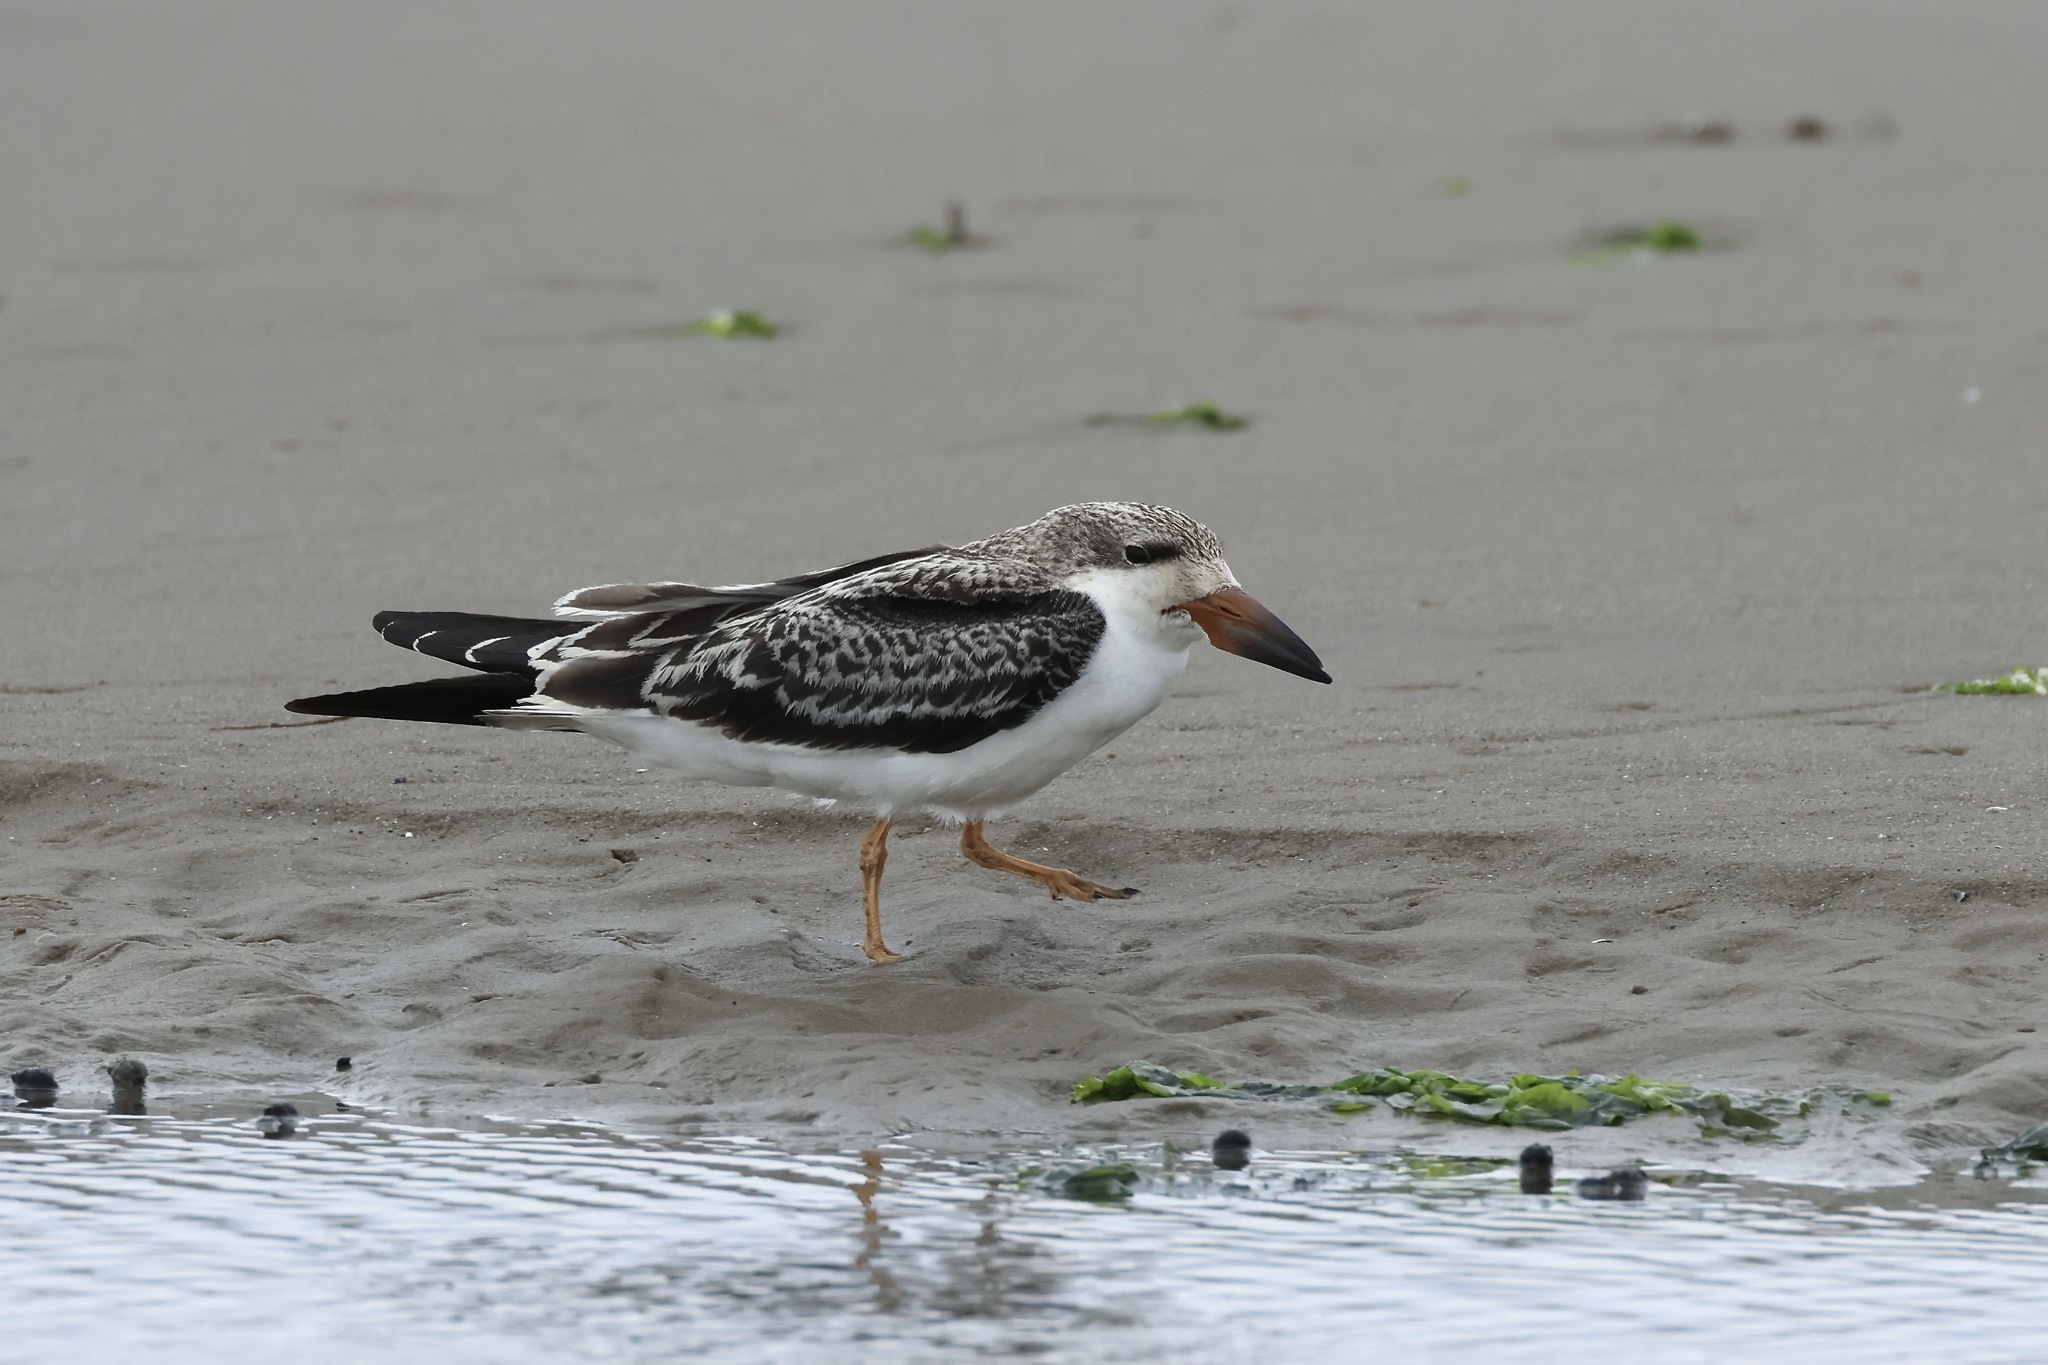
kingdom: Animalia
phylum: Chordata
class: Aves
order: Charadriiformes
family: Laridae
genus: Rynchops
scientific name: Rynchops niger
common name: Black skimmer
